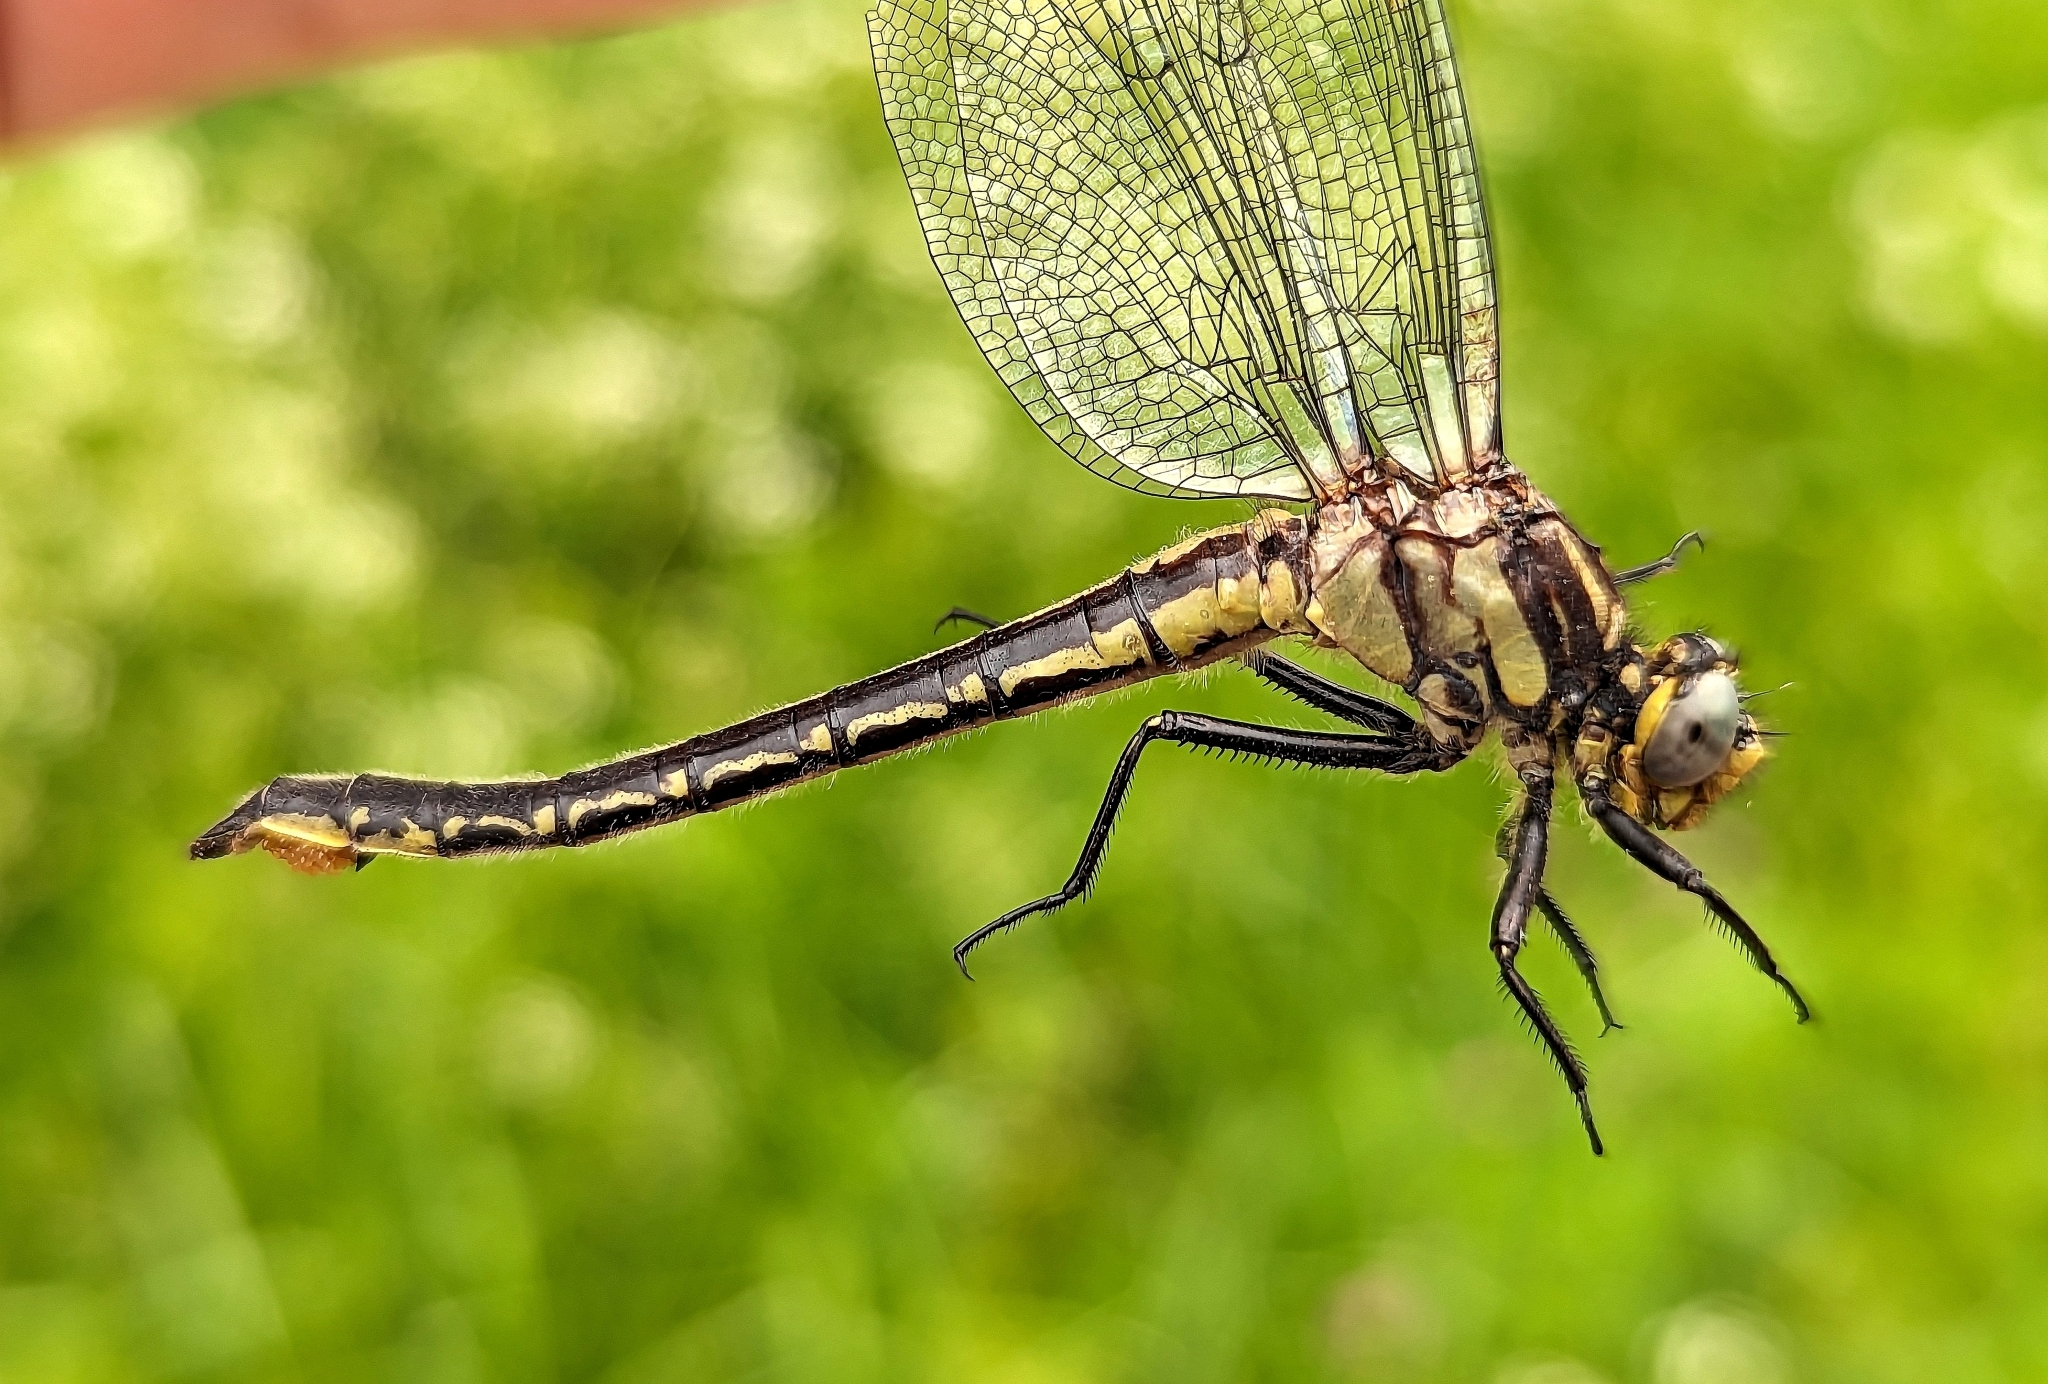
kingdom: Animalia
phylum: Arthropoda
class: Insecta
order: Odonata
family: Gomphidae
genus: Phanogomphus
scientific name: Phanogomphus descriptus
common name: Harpoon clubtail
